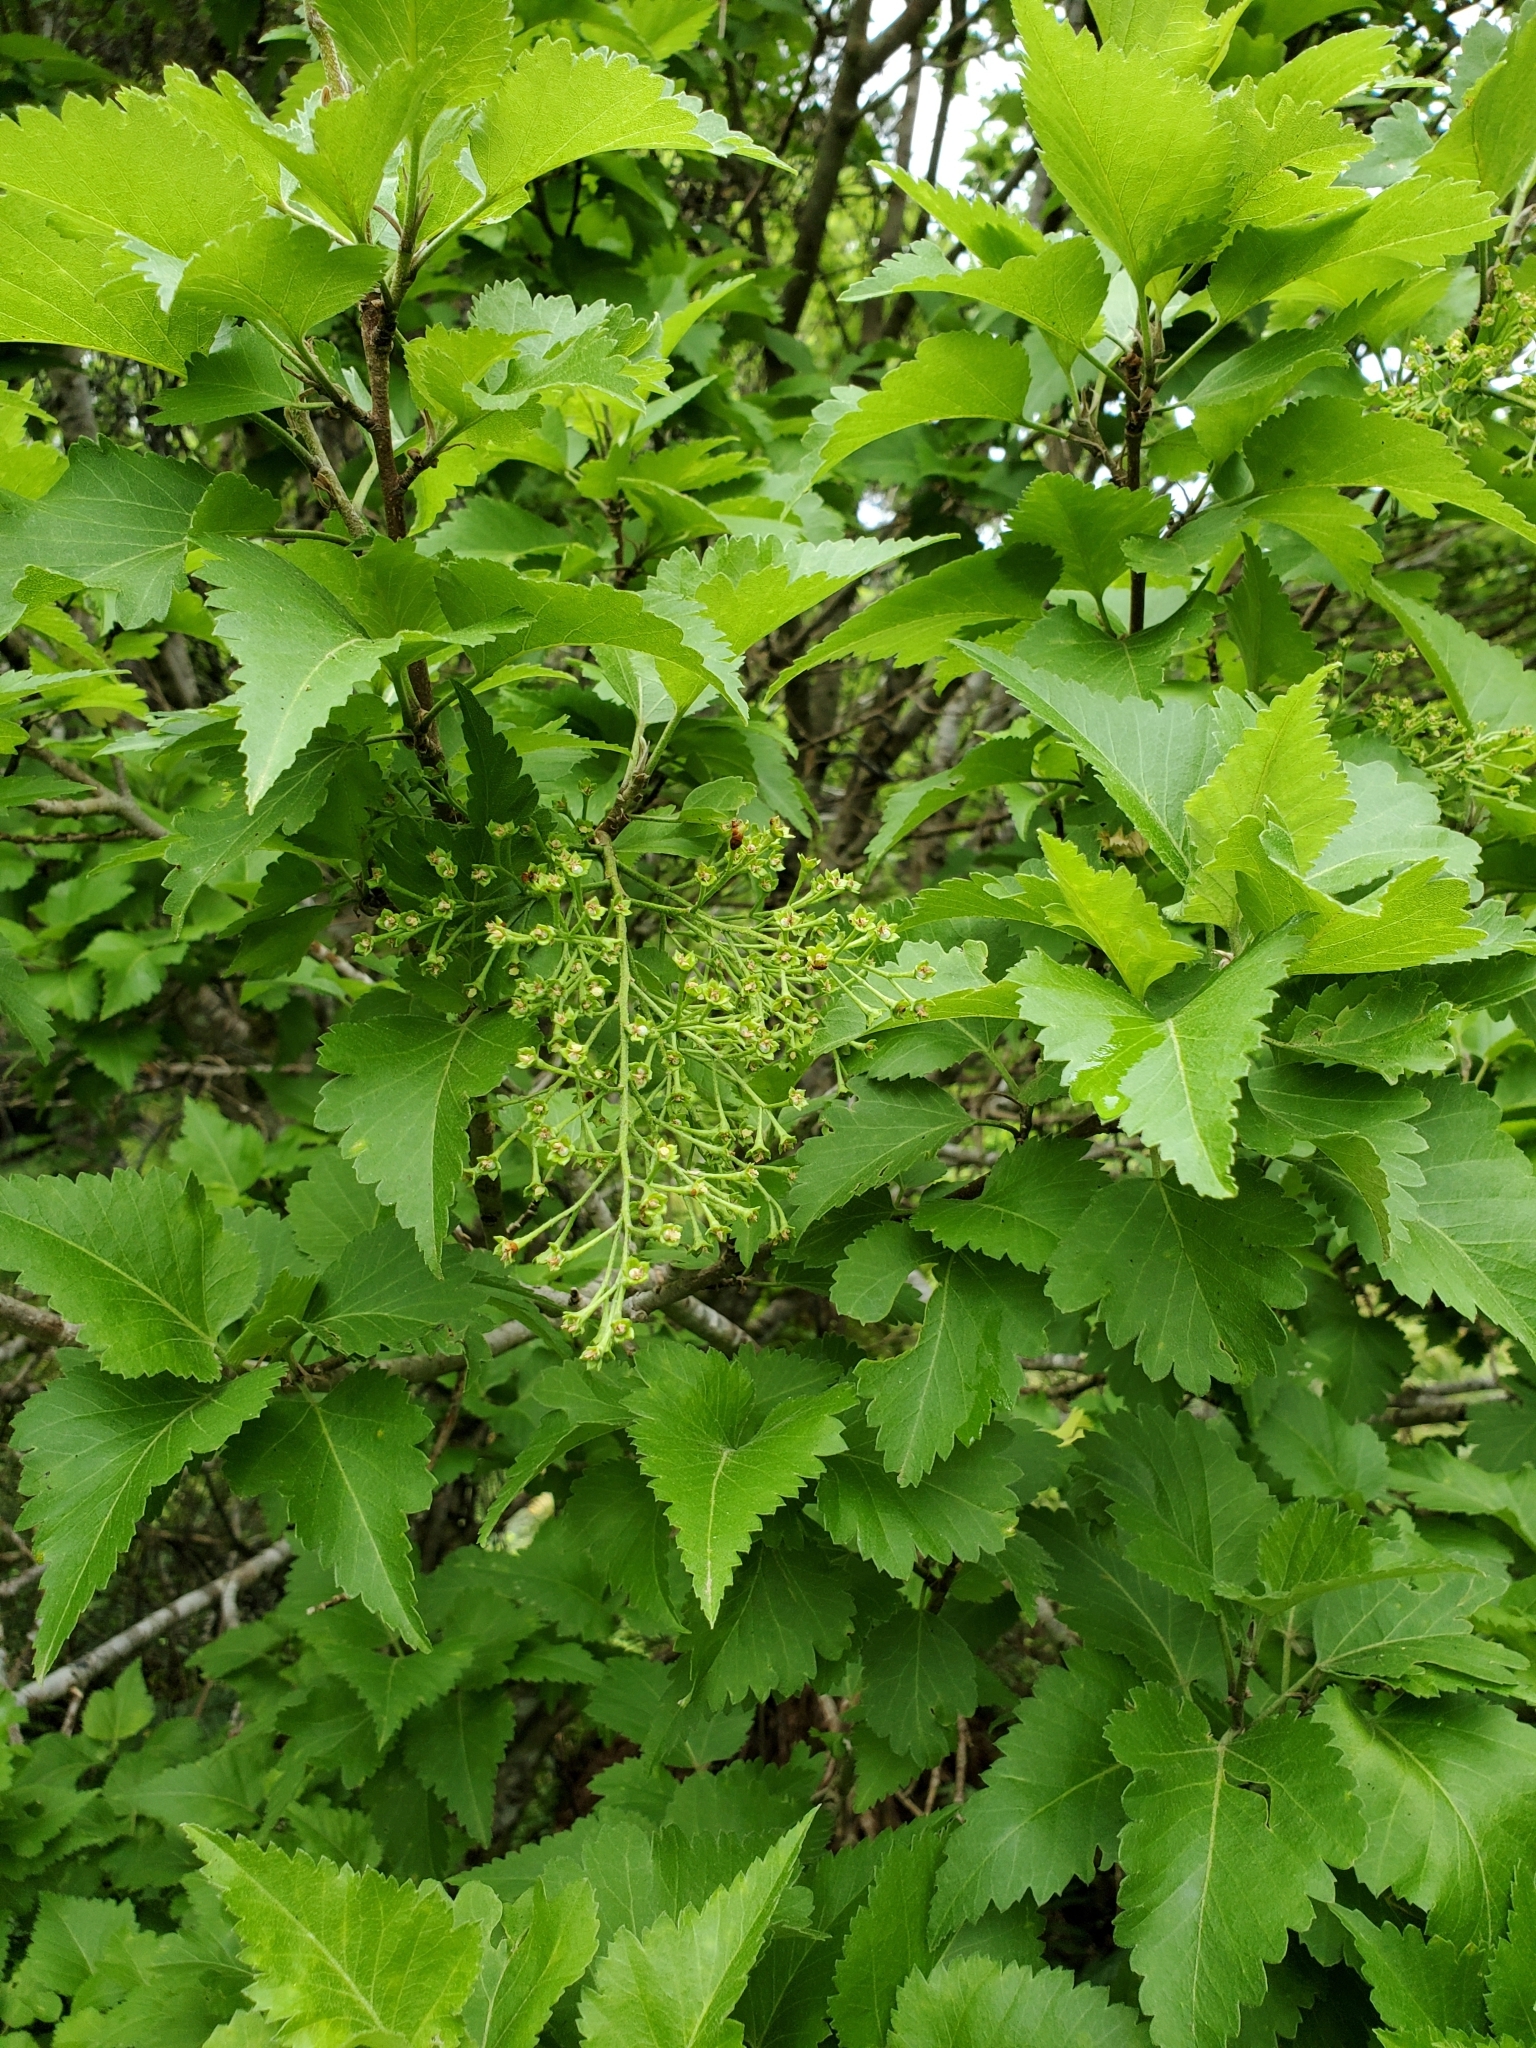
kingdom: Plantae
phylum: Tracheophyta
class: Magnoliopsida
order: Malvales
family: Malvaceae
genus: Plagianthus
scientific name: Plagianthus regius
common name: Manatu
